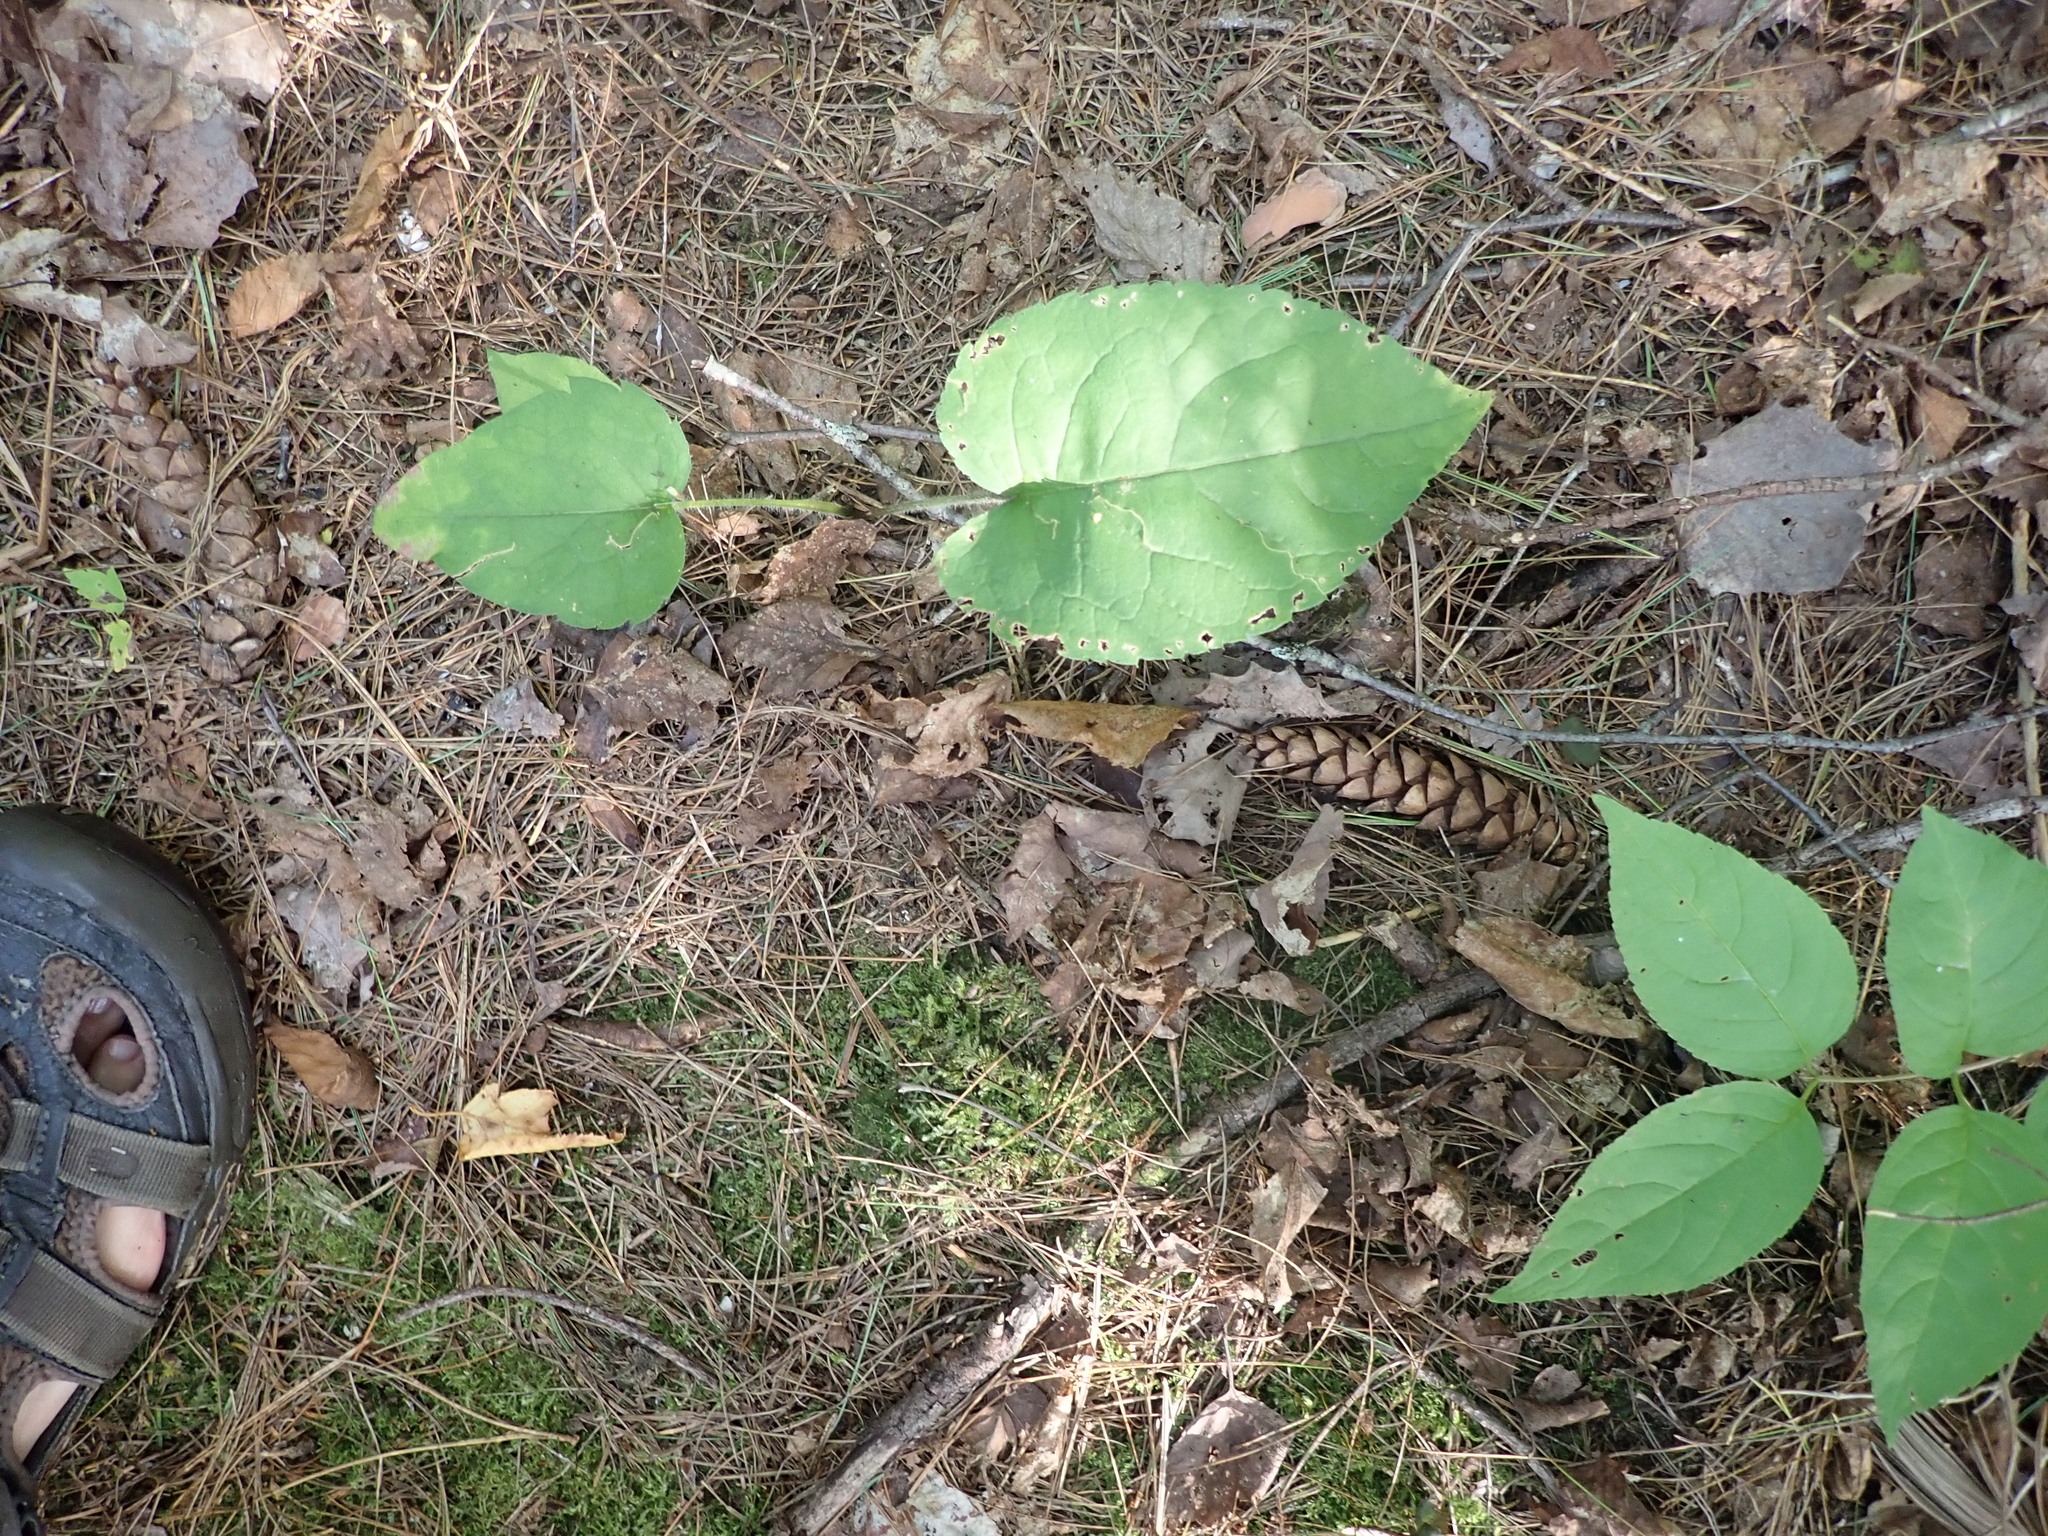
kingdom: Plantae
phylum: Tracheophyta
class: Magnoliopsida
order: Asterales
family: Asteraceae
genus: Eurybia
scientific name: Eurybia macrophylla
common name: Big-leaved aster
